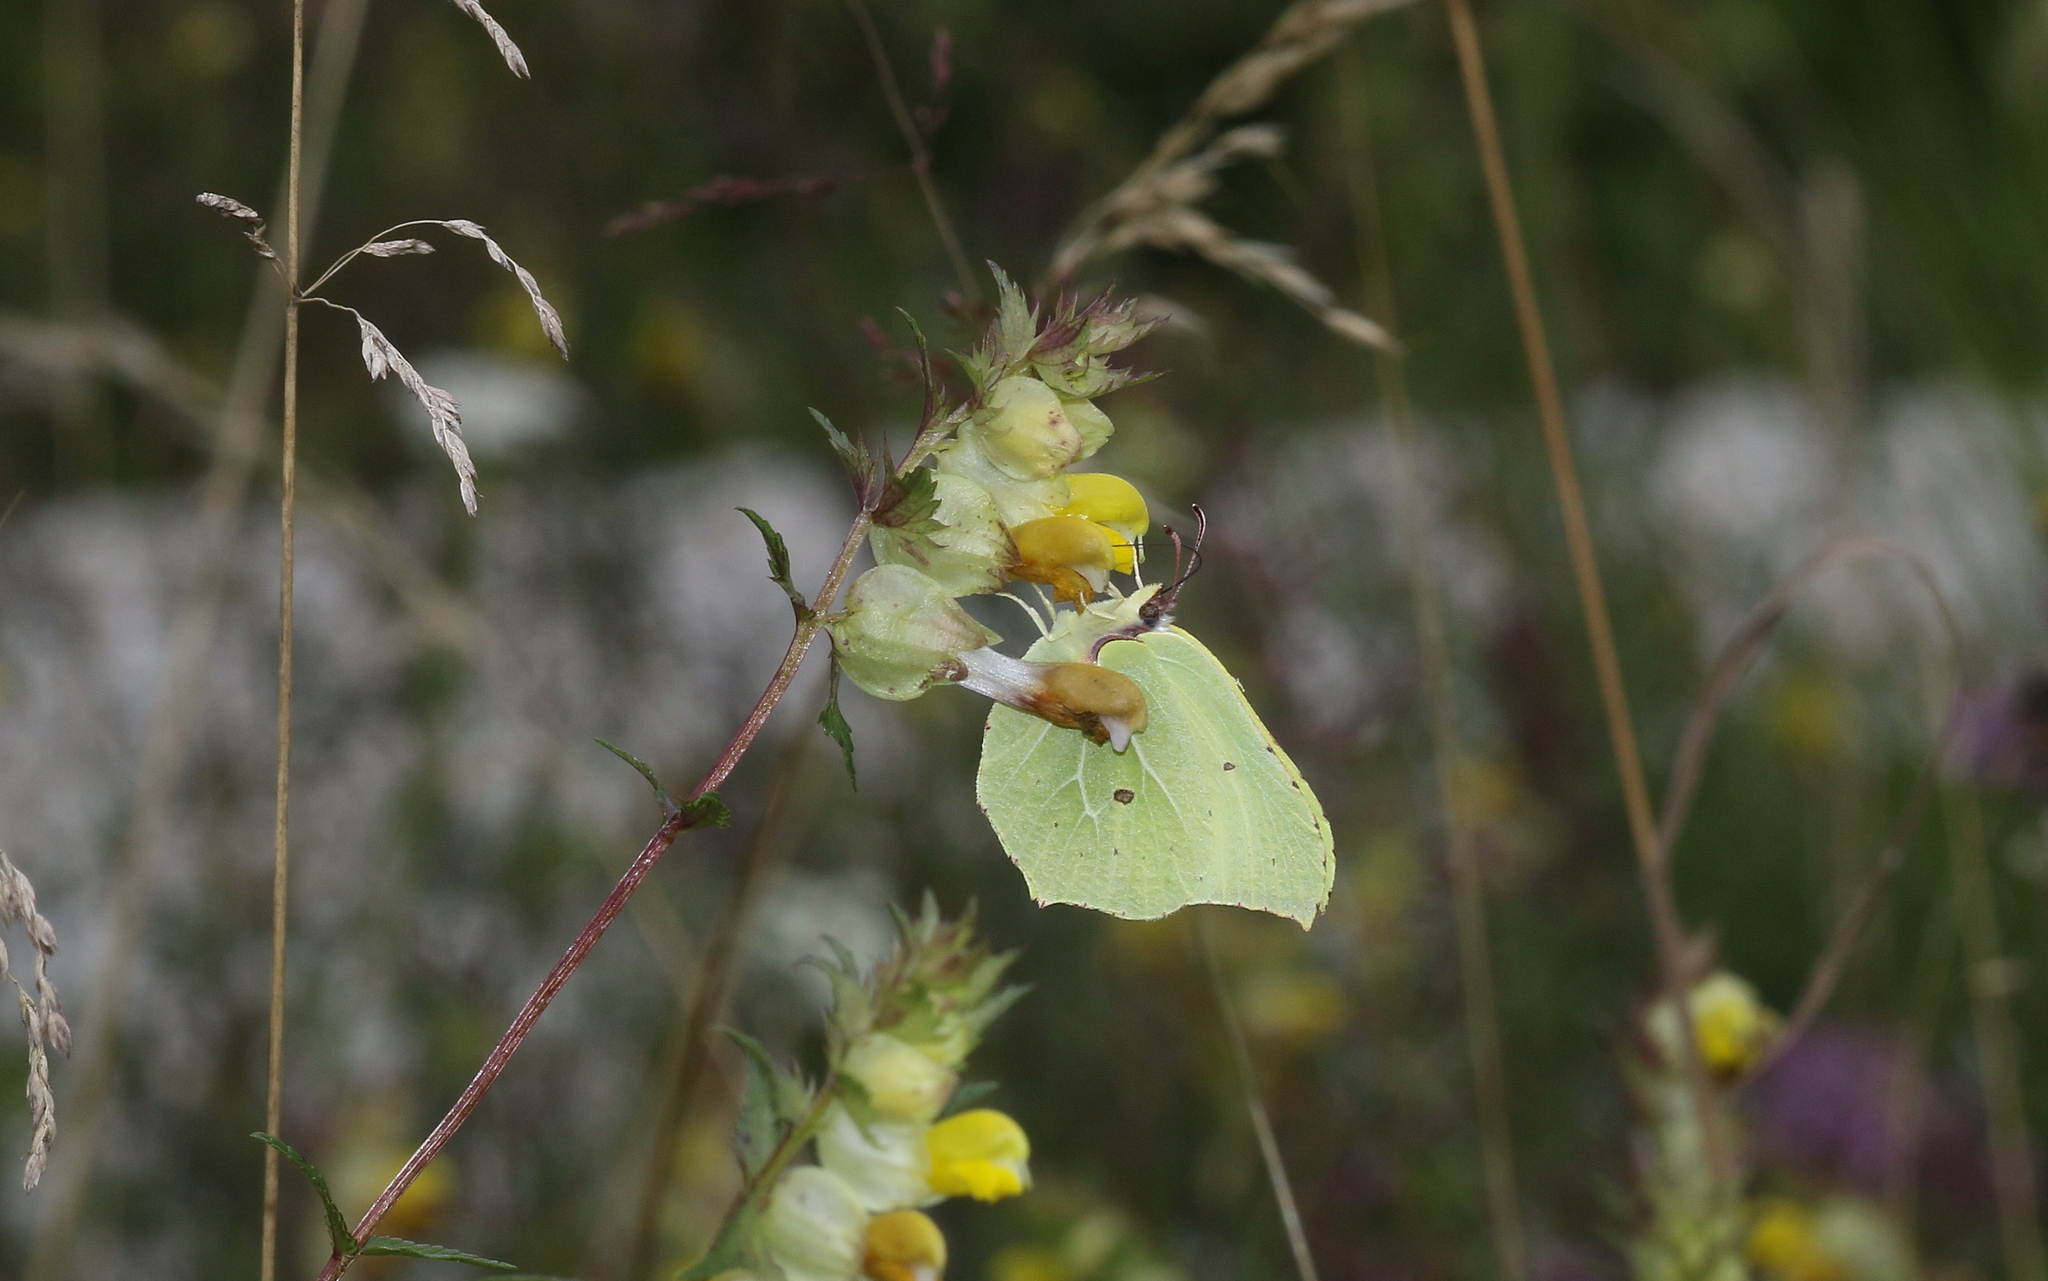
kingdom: Animalia
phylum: Arthropoda
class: Insecta
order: Lepidoptera
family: Pieridae
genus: Gonepteryx
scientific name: Gonepteryx rhamni
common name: Brimstone
